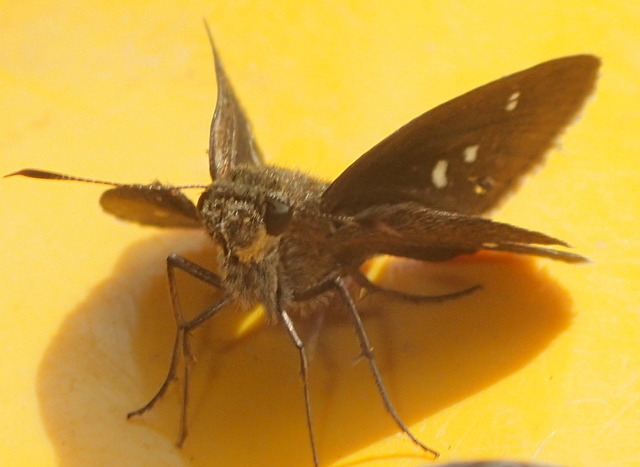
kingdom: Animalia
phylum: Arthropoda
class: Insecta
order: Lepidoptera
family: Hesperiidae
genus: Oligoria
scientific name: Oligoria maculata
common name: Twin-spot skipper
